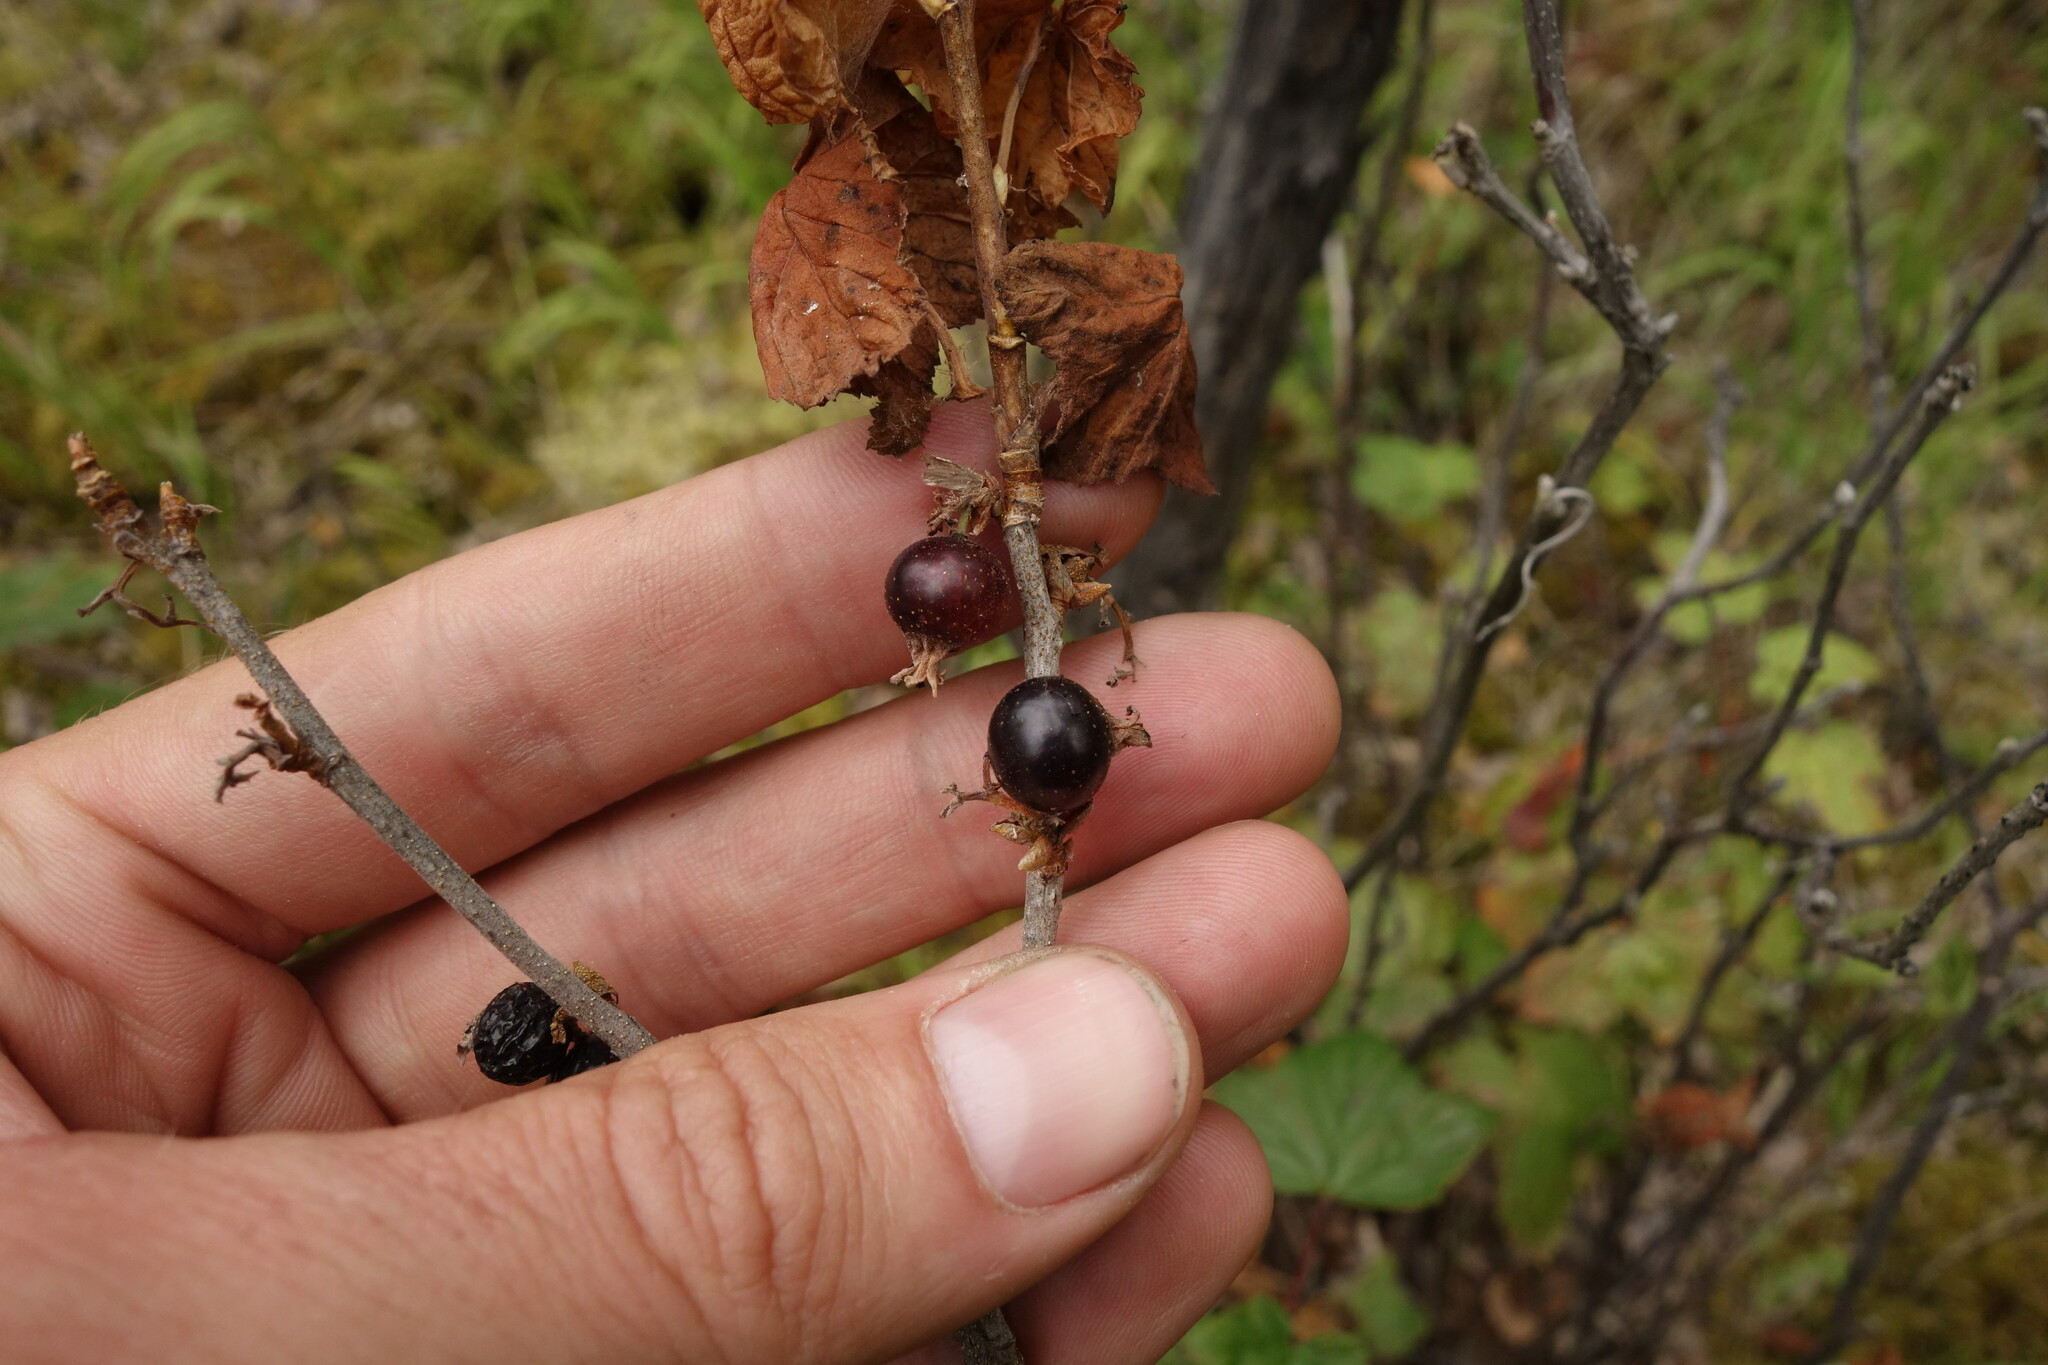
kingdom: Plantae
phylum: Tracheophyta
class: Magnoliopsida
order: Saxifragales
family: Grossulariaceae
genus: Ribes
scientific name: Ribes nigrum
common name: Black currant
